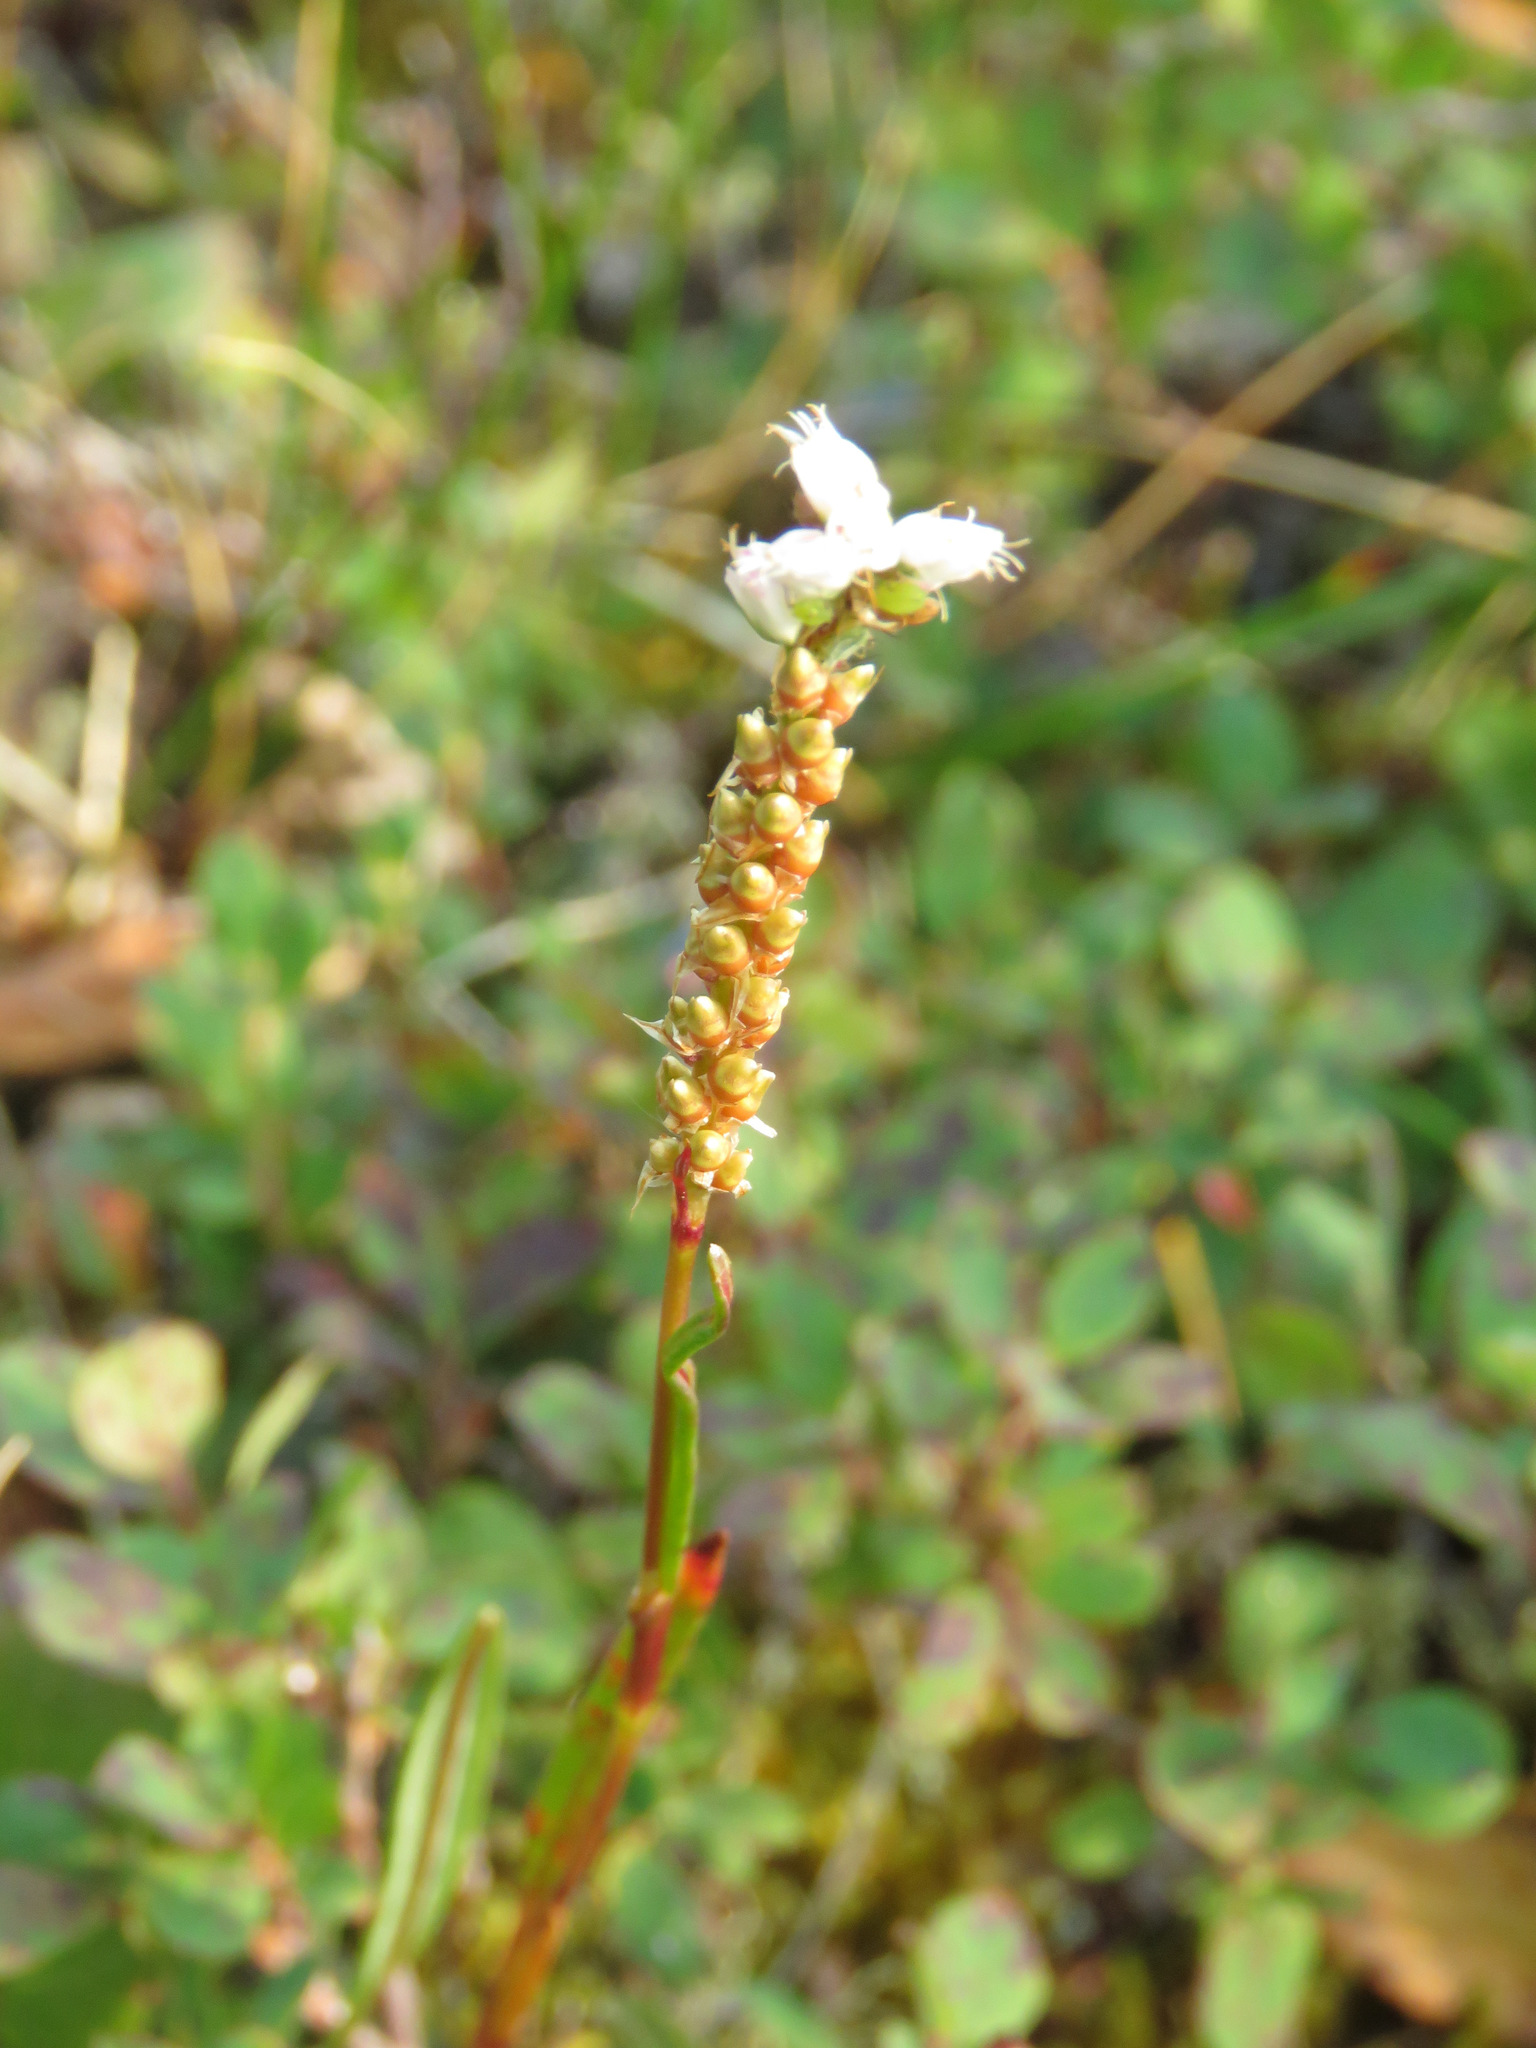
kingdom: Plantae
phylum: Tracheophyta
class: Magnoliopsida
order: Caryophyllales
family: Polygonaceae
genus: Bistorta
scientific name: Bistorta vivipara
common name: Alpine bistort
